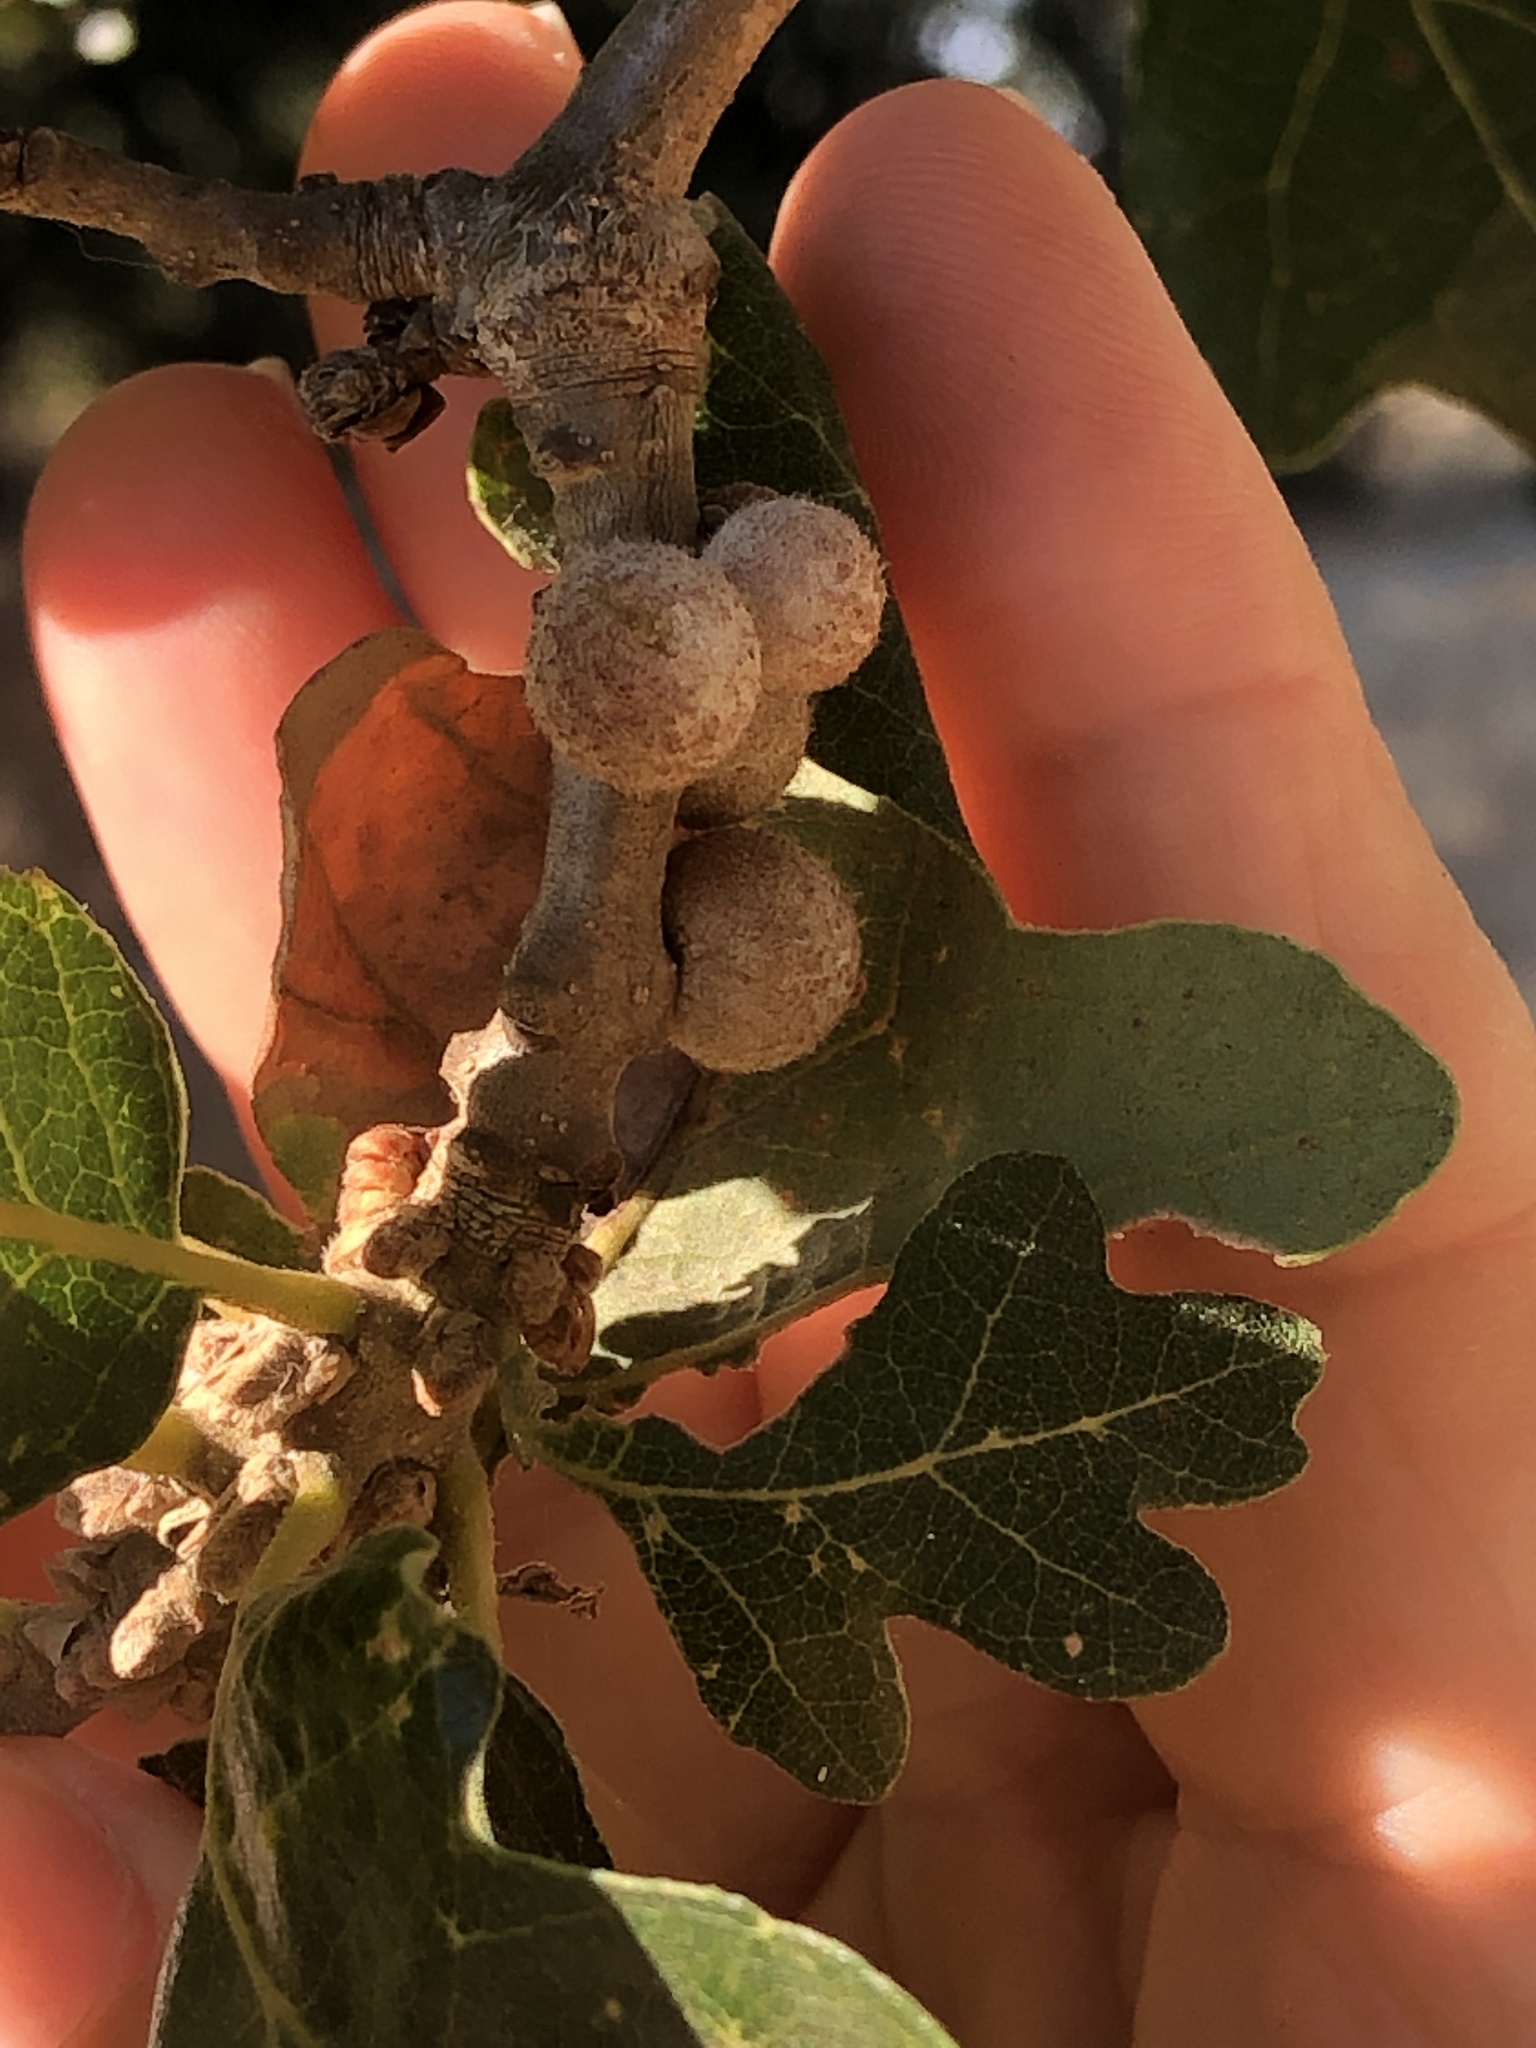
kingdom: Animalia
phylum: Arthropoda
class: Insecta
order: Hymenoptera
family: Cynipidae
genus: Burnettweldia
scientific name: Burnettweldia
